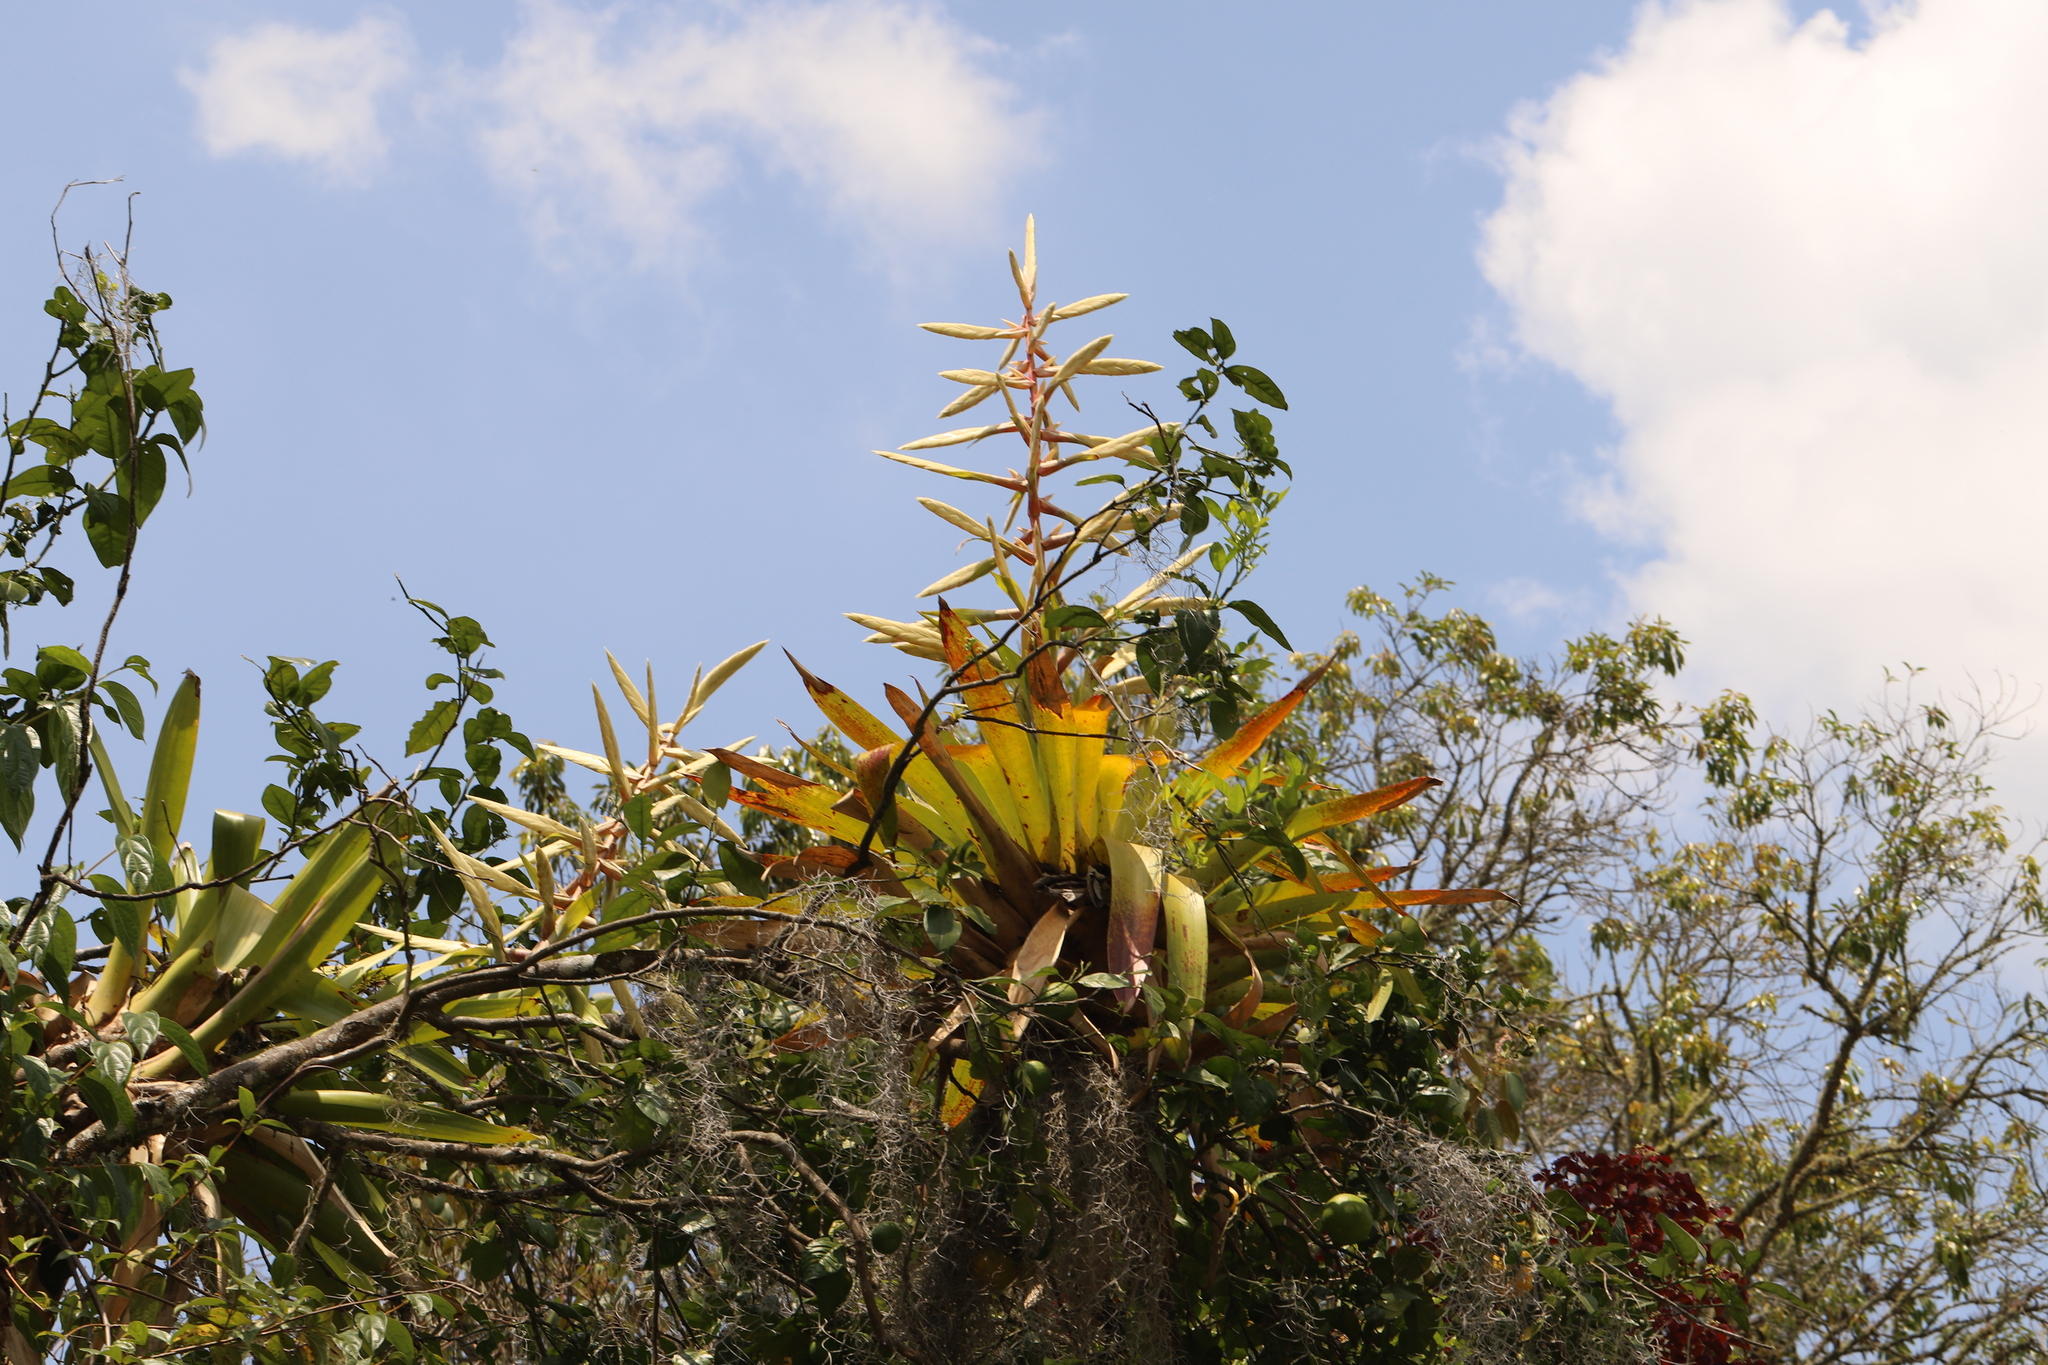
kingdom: Plantae
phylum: Tracheophyta
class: Liliopsida
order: Poales
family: Bromeliaceae
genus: Tillandsia
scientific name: Tillandsia fendleri
